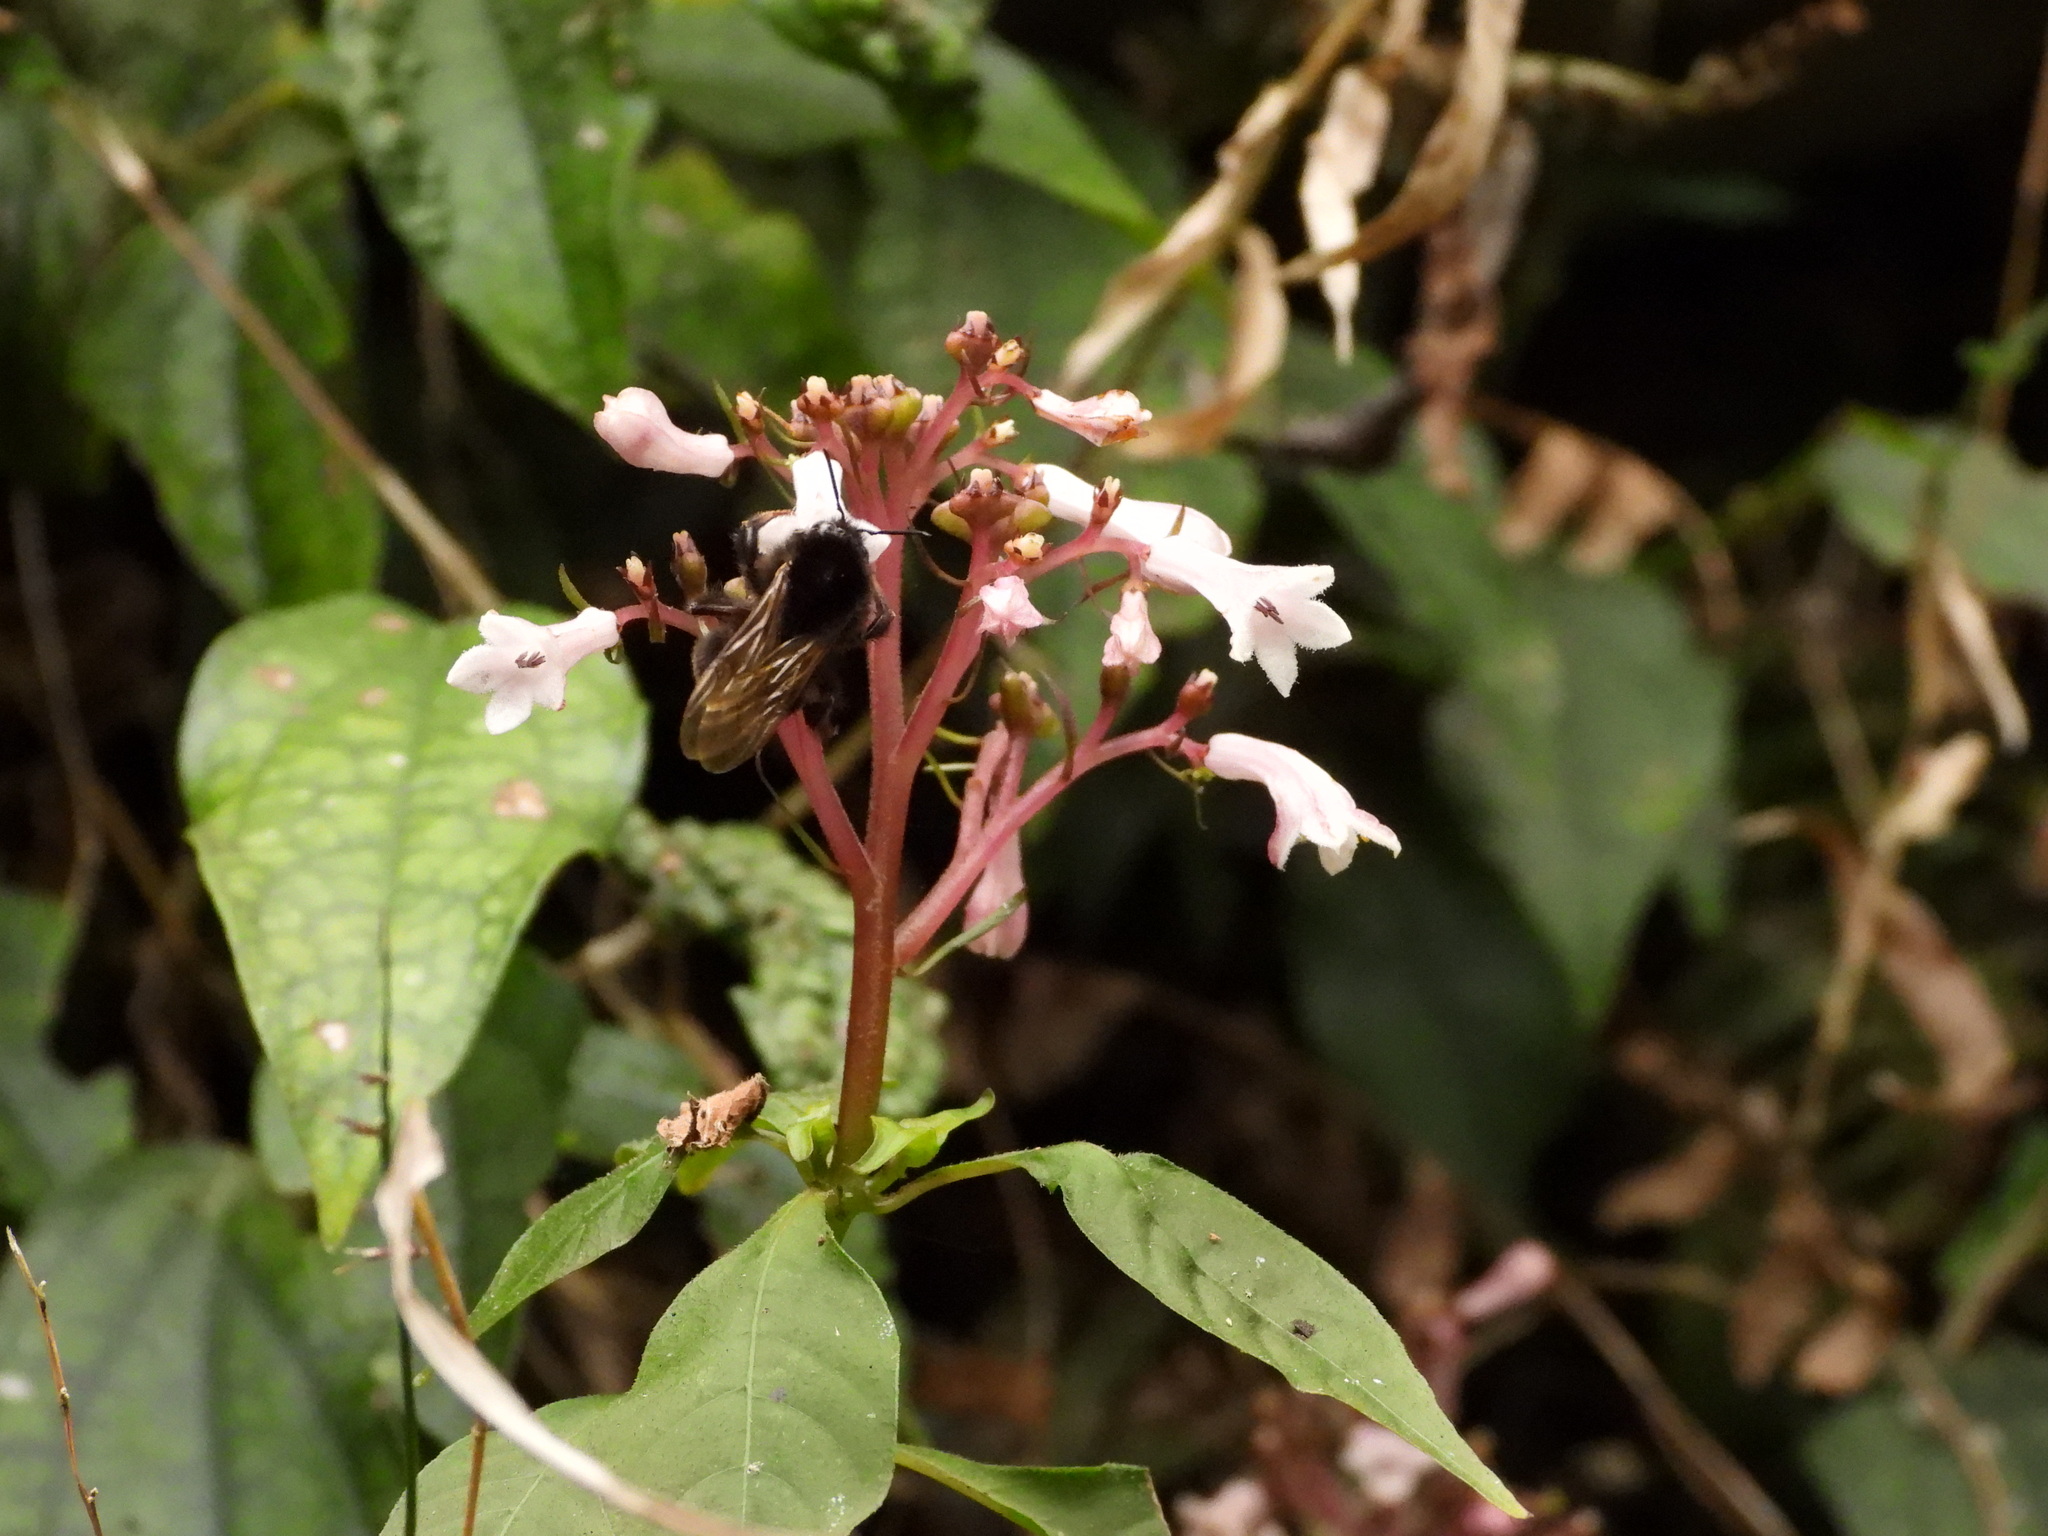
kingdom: Animalia
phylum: Arthropoda
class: Insecta
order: Hymenoptera
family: Apidae
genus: Bombus
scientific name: Bombus trifasciatus
